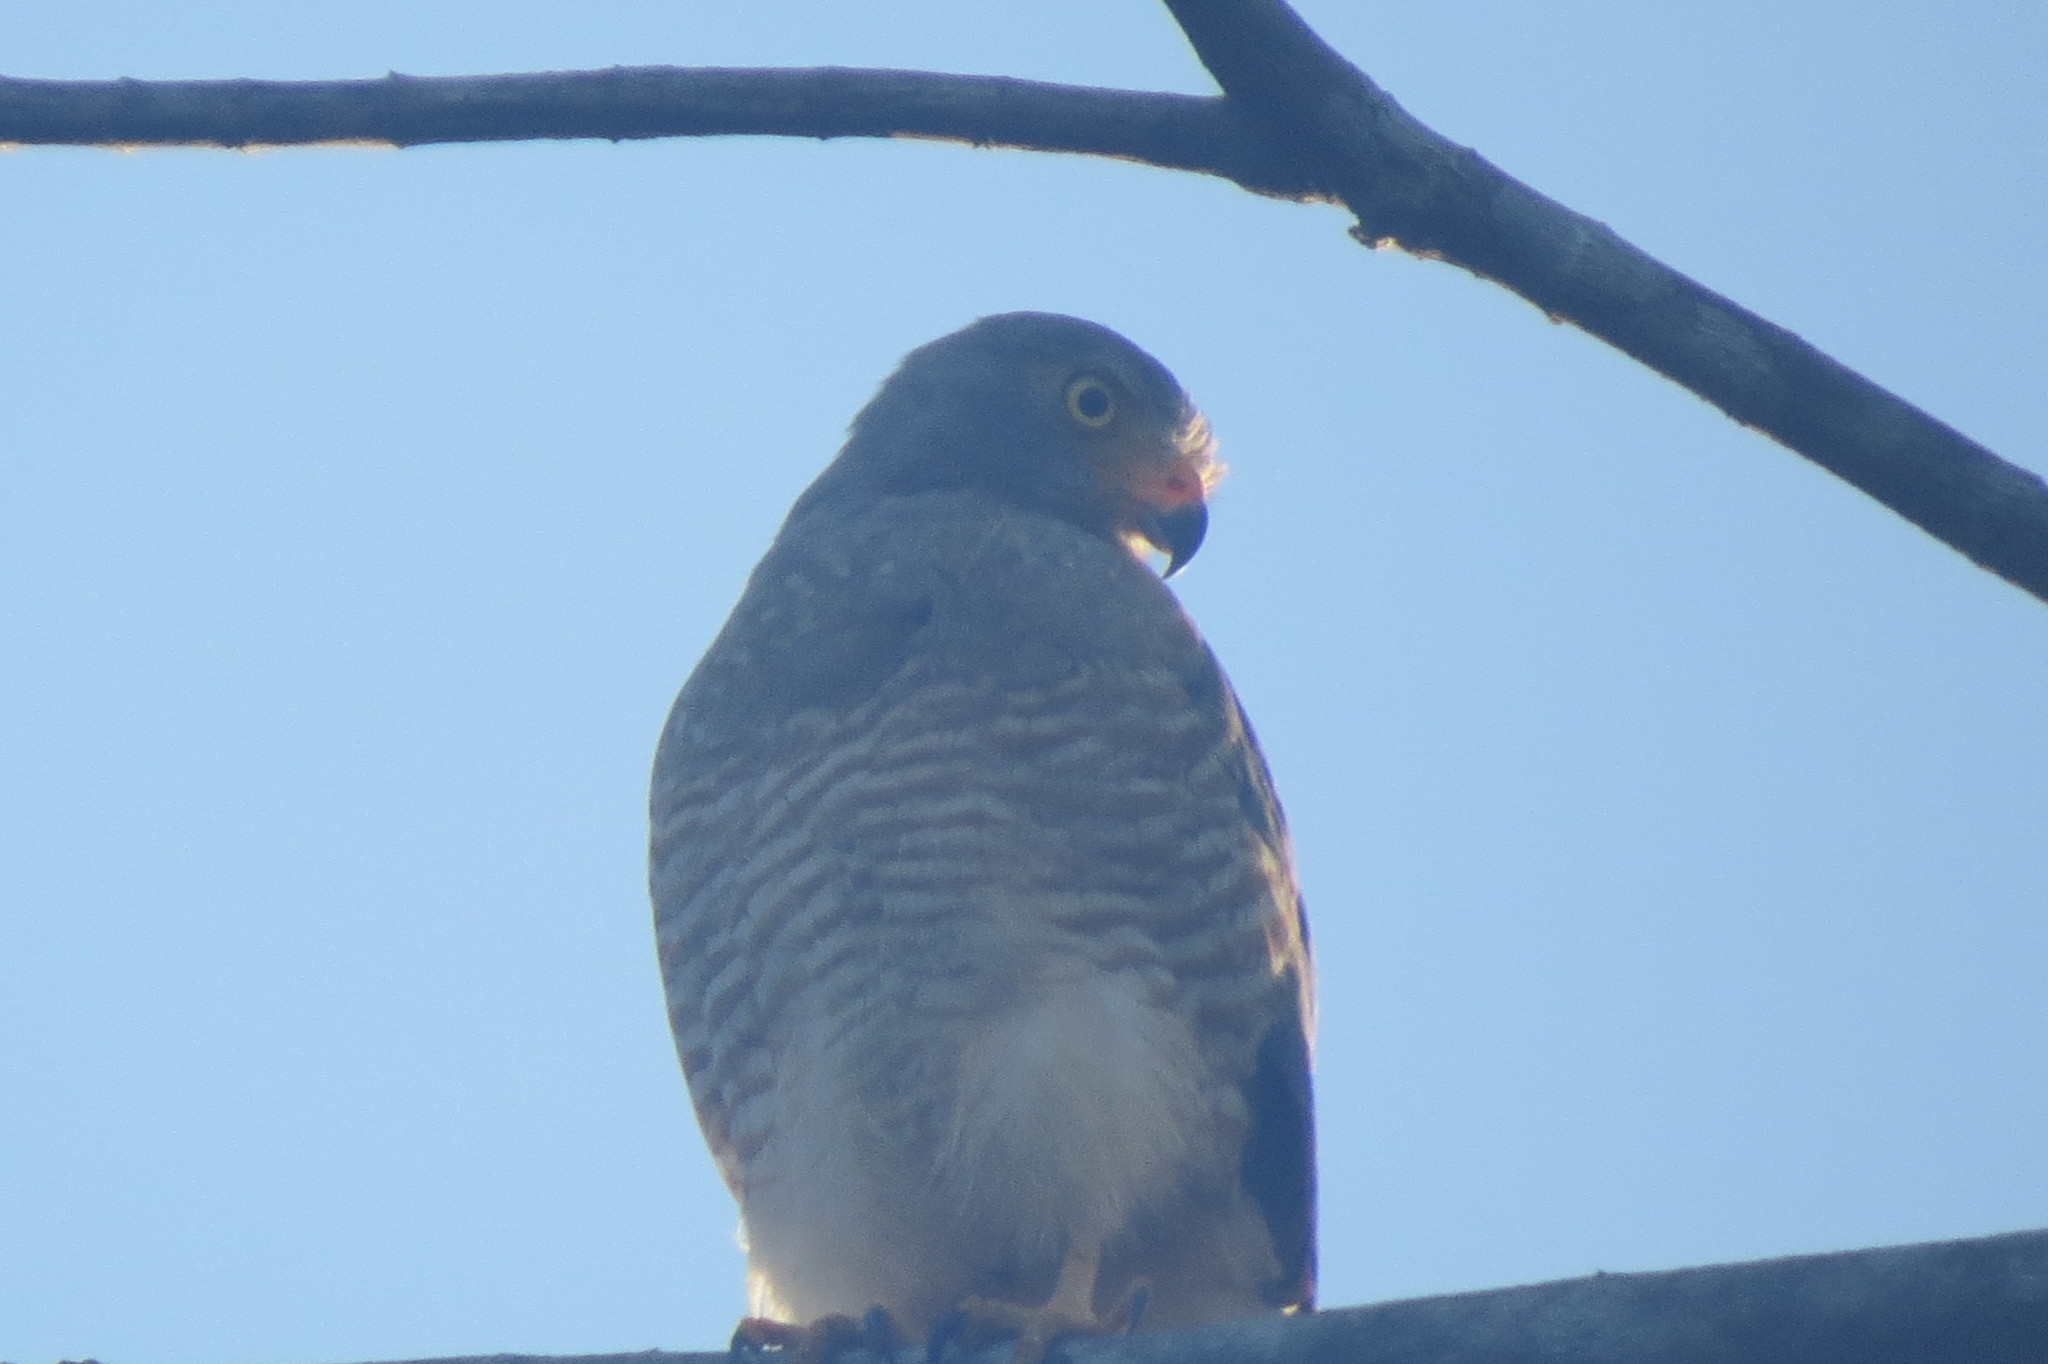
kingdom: Animalia
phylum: Chordata
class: Aves
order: Accipitriformes
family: Accipitridae
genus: Rupornis
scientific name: Rupornis magnirostris
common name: Roadside hawk
